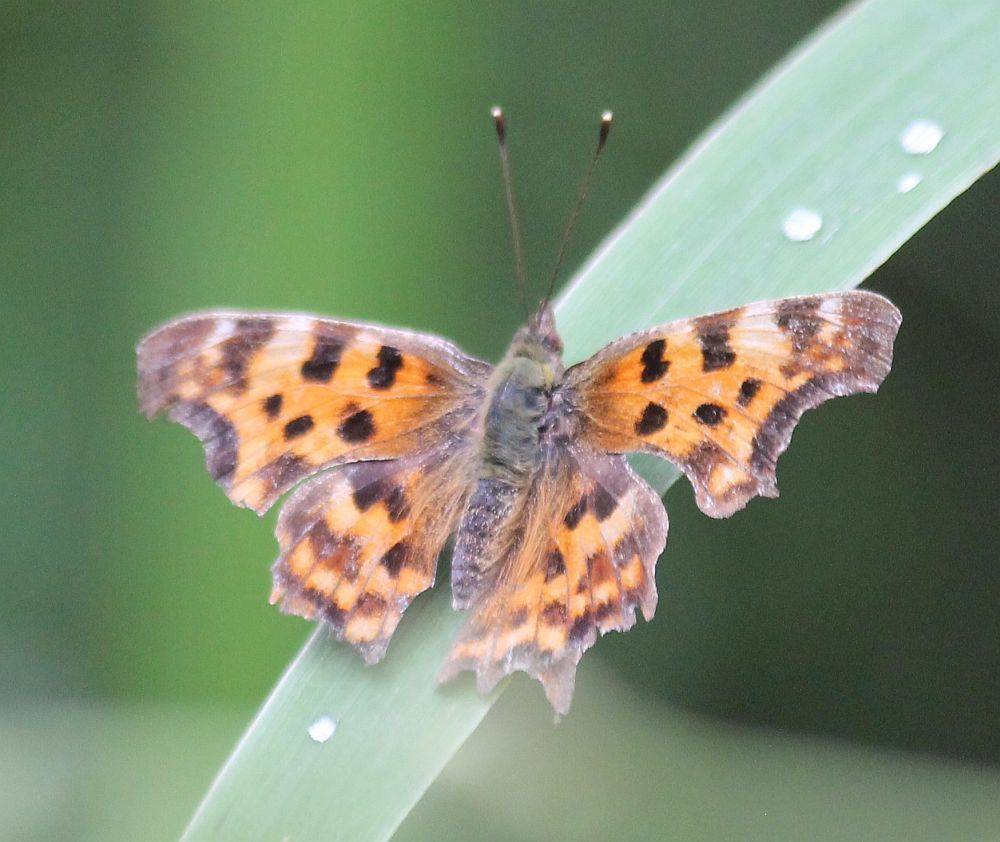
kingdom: Animalia
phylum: Arthropoda
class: Insecta
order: Lepidoptera
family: Nymphalidae
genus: Polygonia
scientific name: Polygonia c-album
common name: Comma
